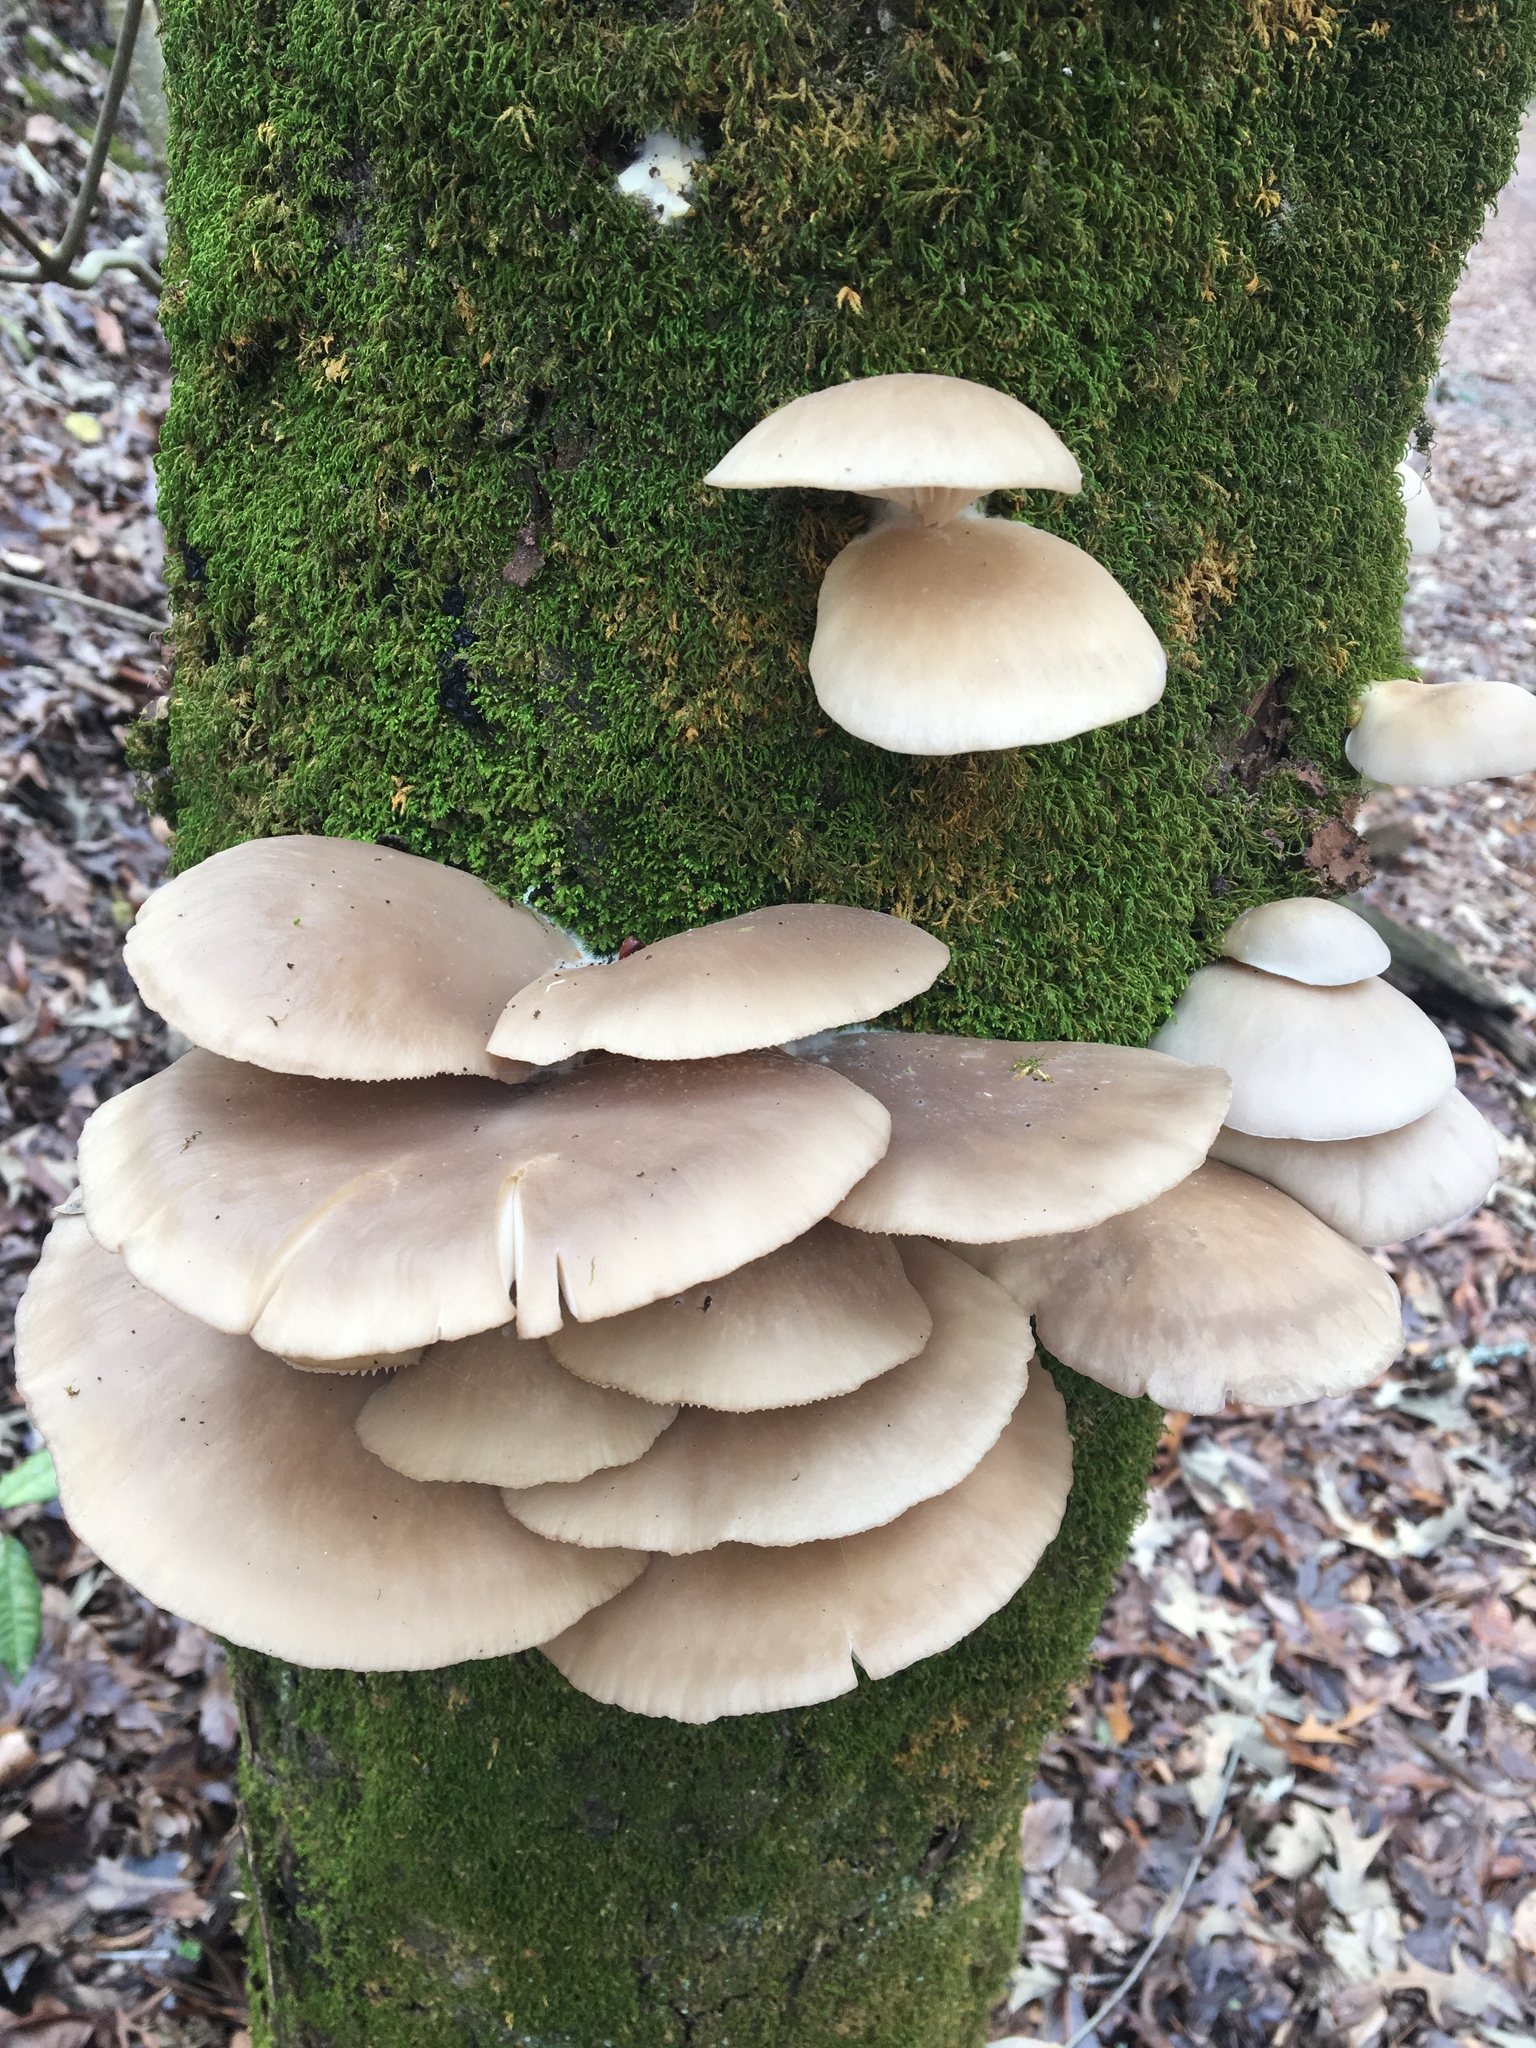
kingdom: Fungi
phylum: Basidiomycota
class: Agaricomycetes
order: Agaricales
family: Pleurotaceae
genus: Pleurotus
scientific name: Pleurotus ostreatus
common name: Oyster mushroom
